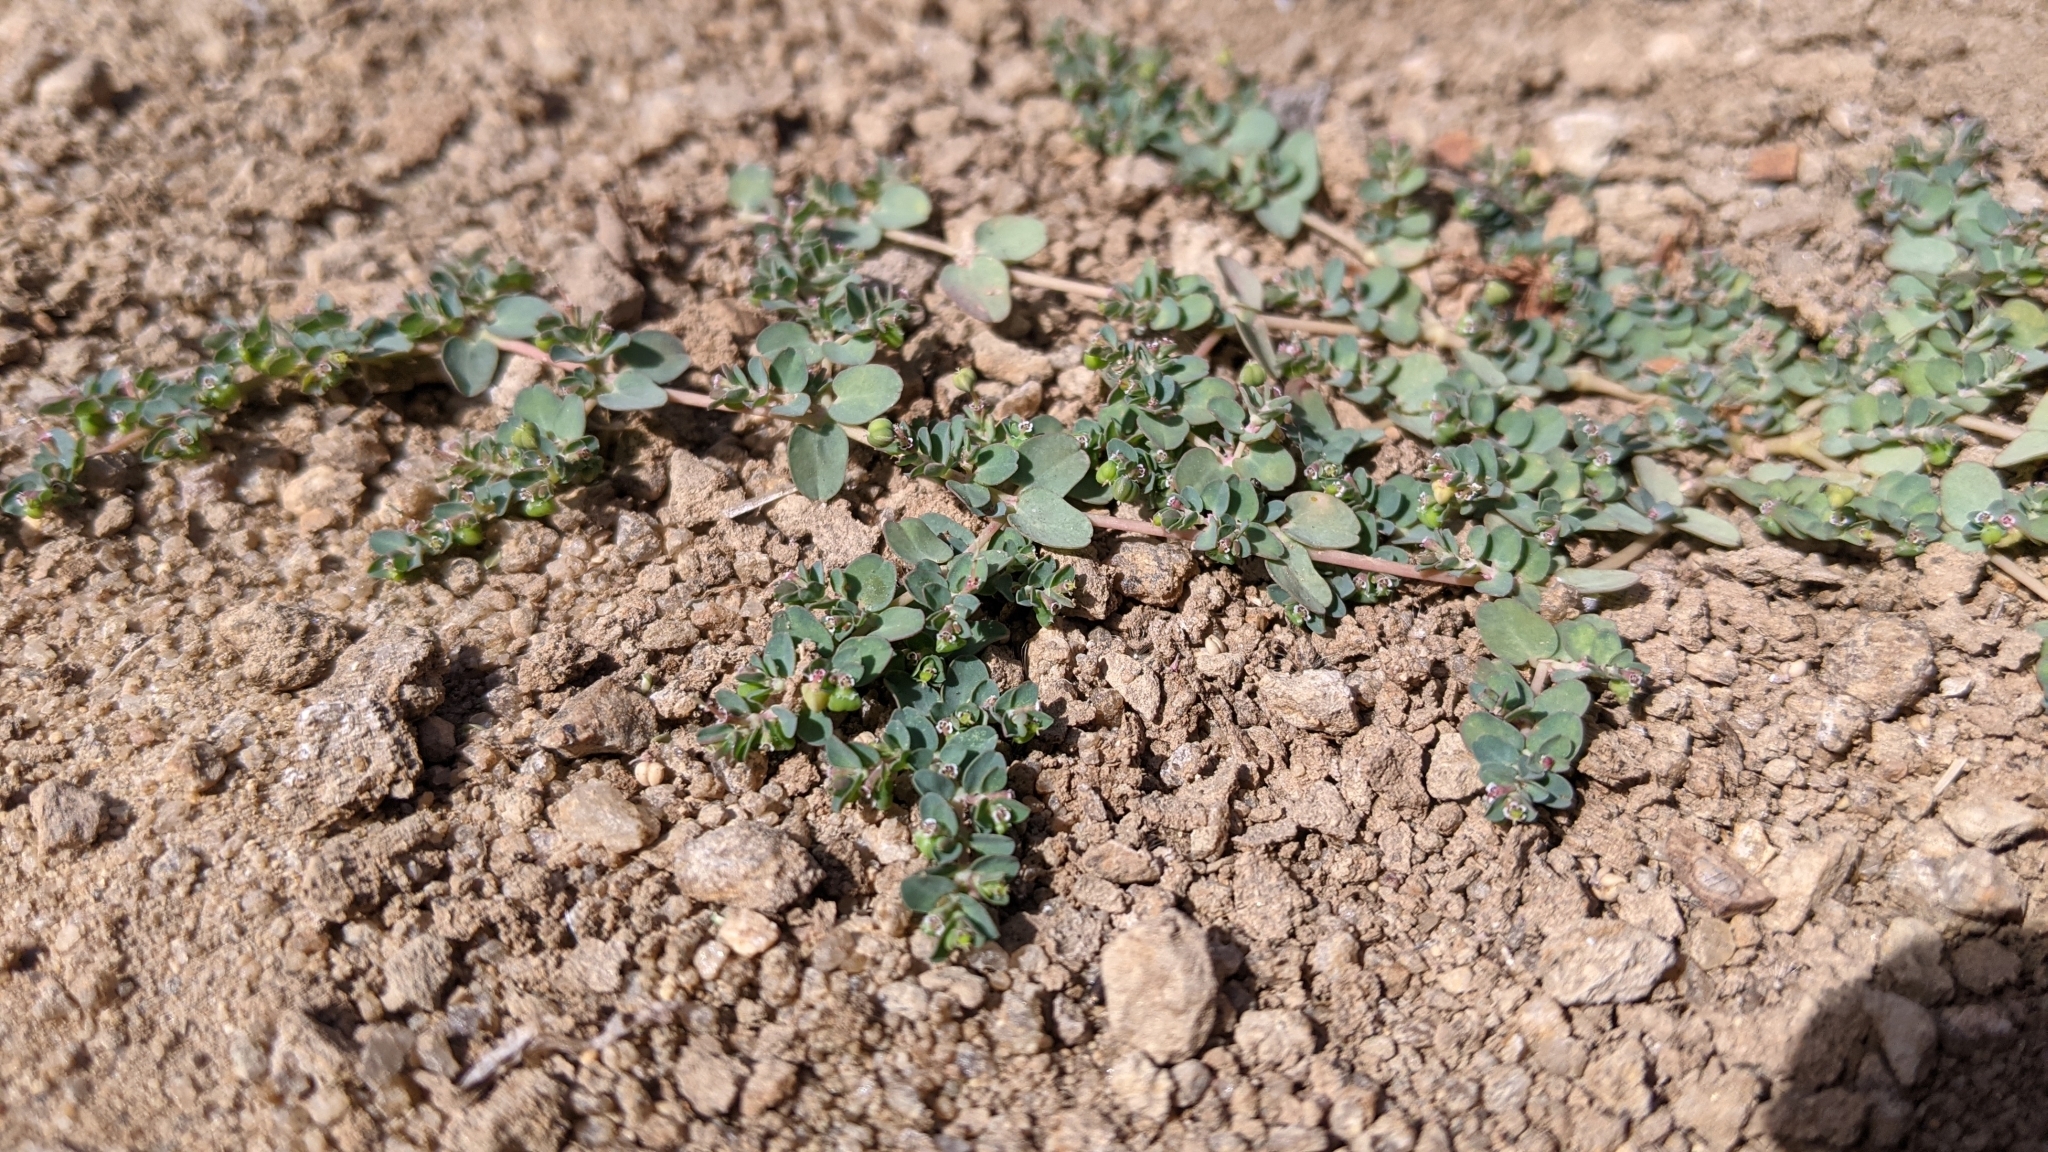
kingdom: Plantae
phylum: Tracheophyta
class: Magnoliopsida
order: Malpighiales
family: Euphorbiaceae
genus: Euphorbia
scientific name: Euphorbia serpens
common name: Matted sandmat
